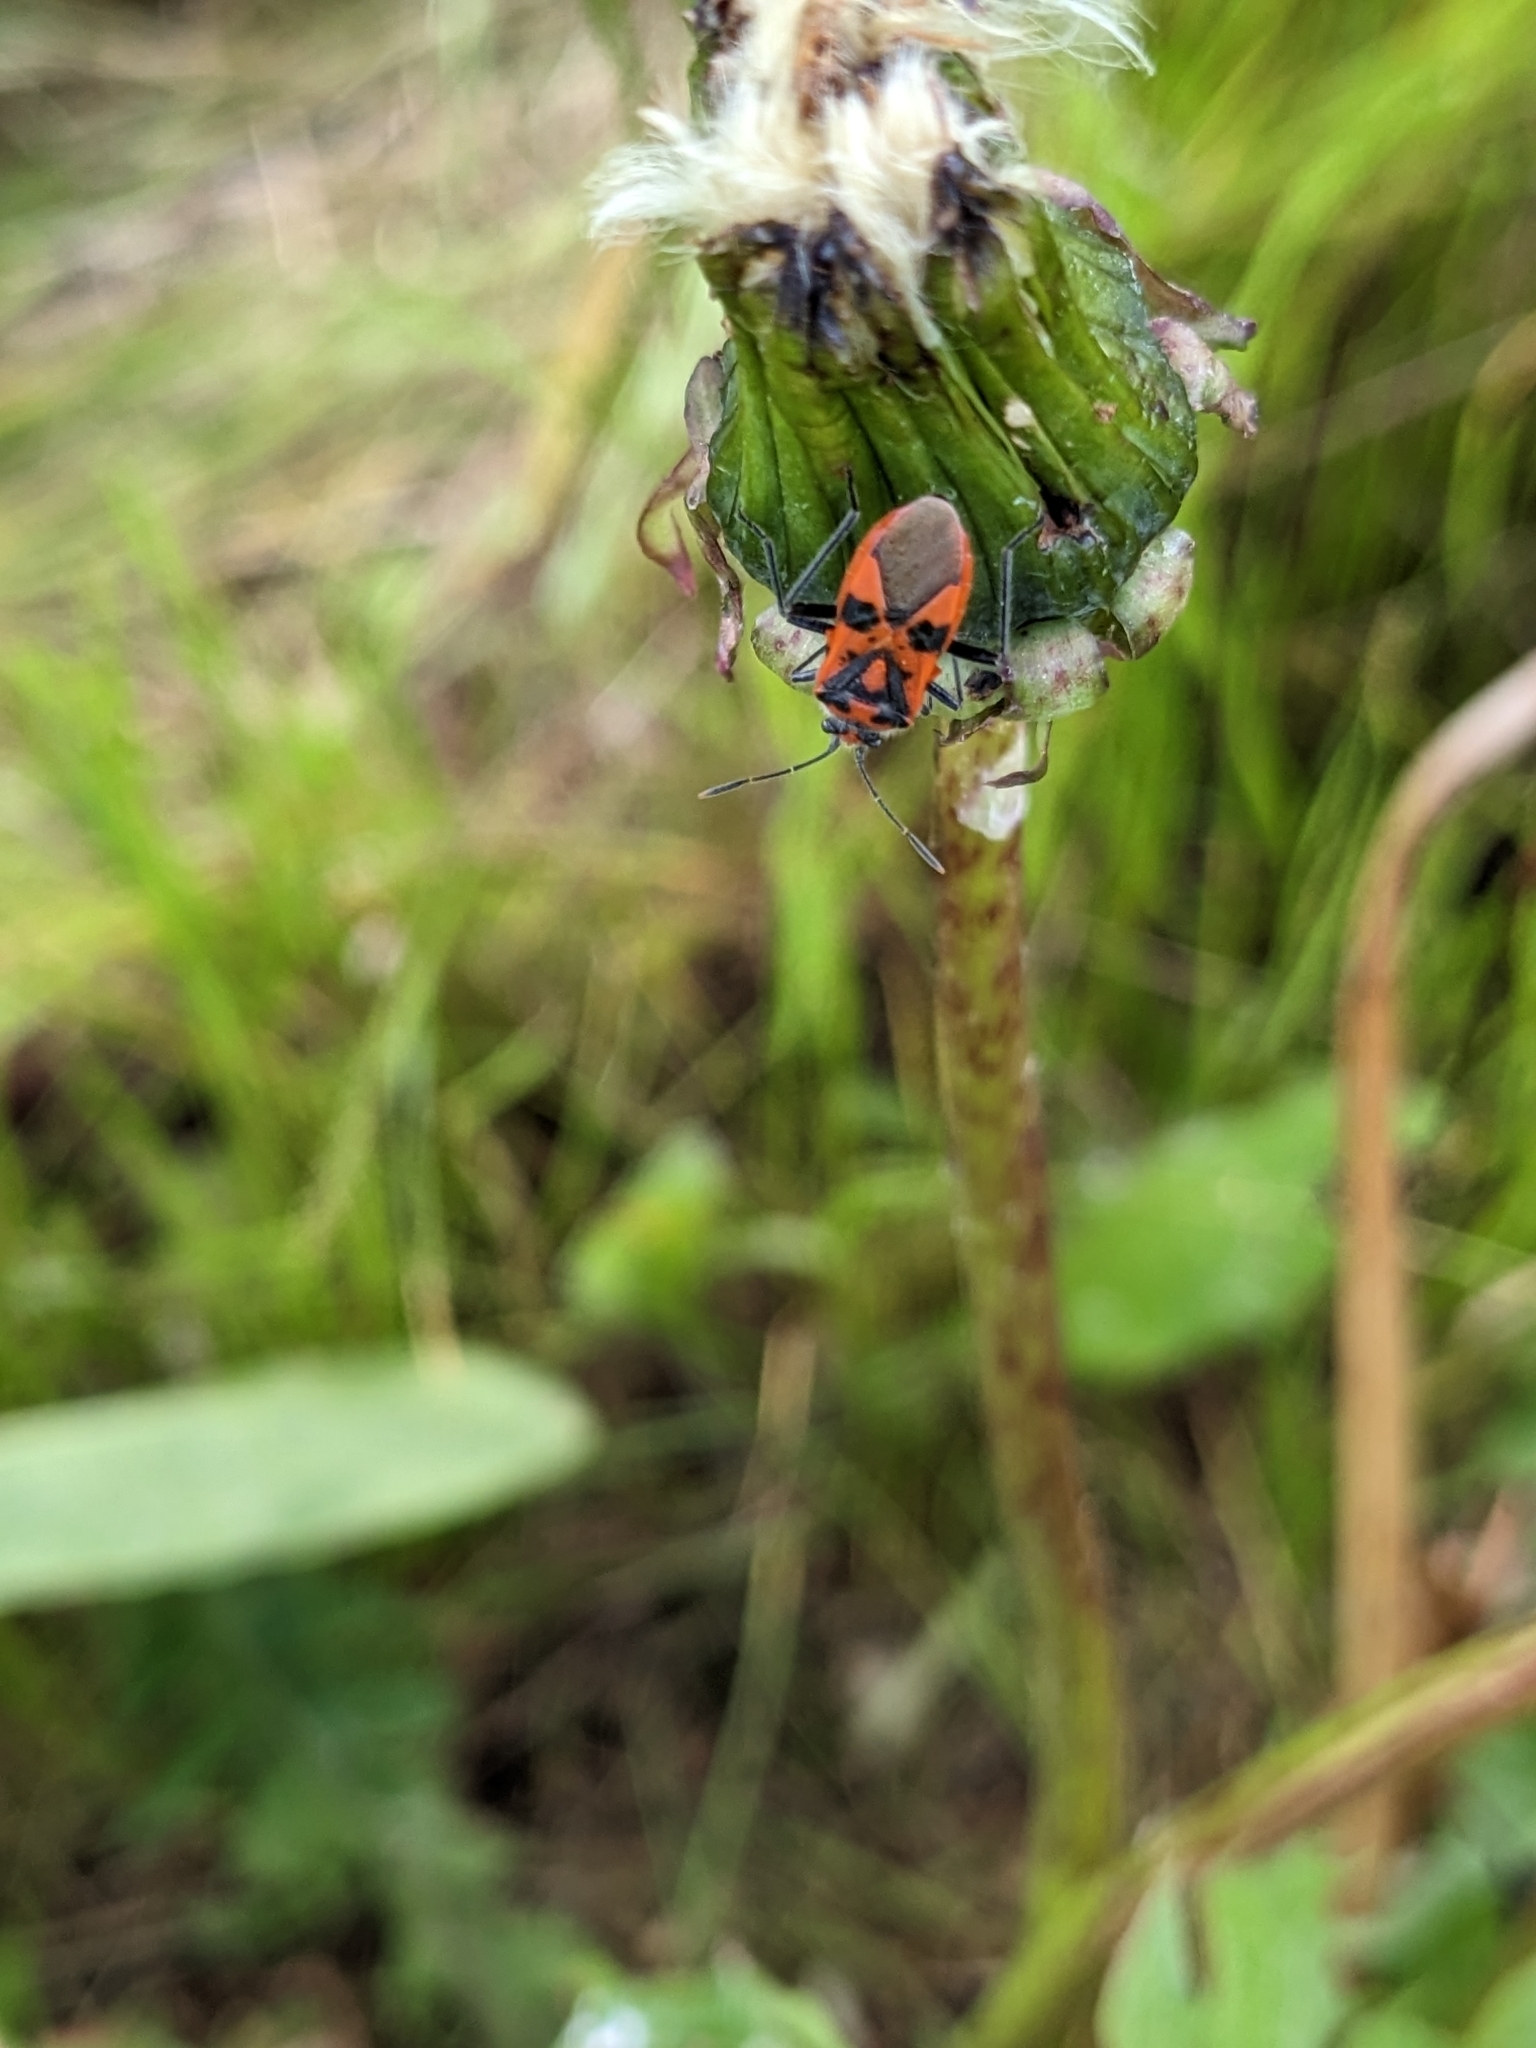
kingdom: Animalia
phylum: Arthropoda
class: Insecta
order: Hemiptera
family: Rhopalidae
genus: Corizus
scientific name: Corizus hyoscyami
